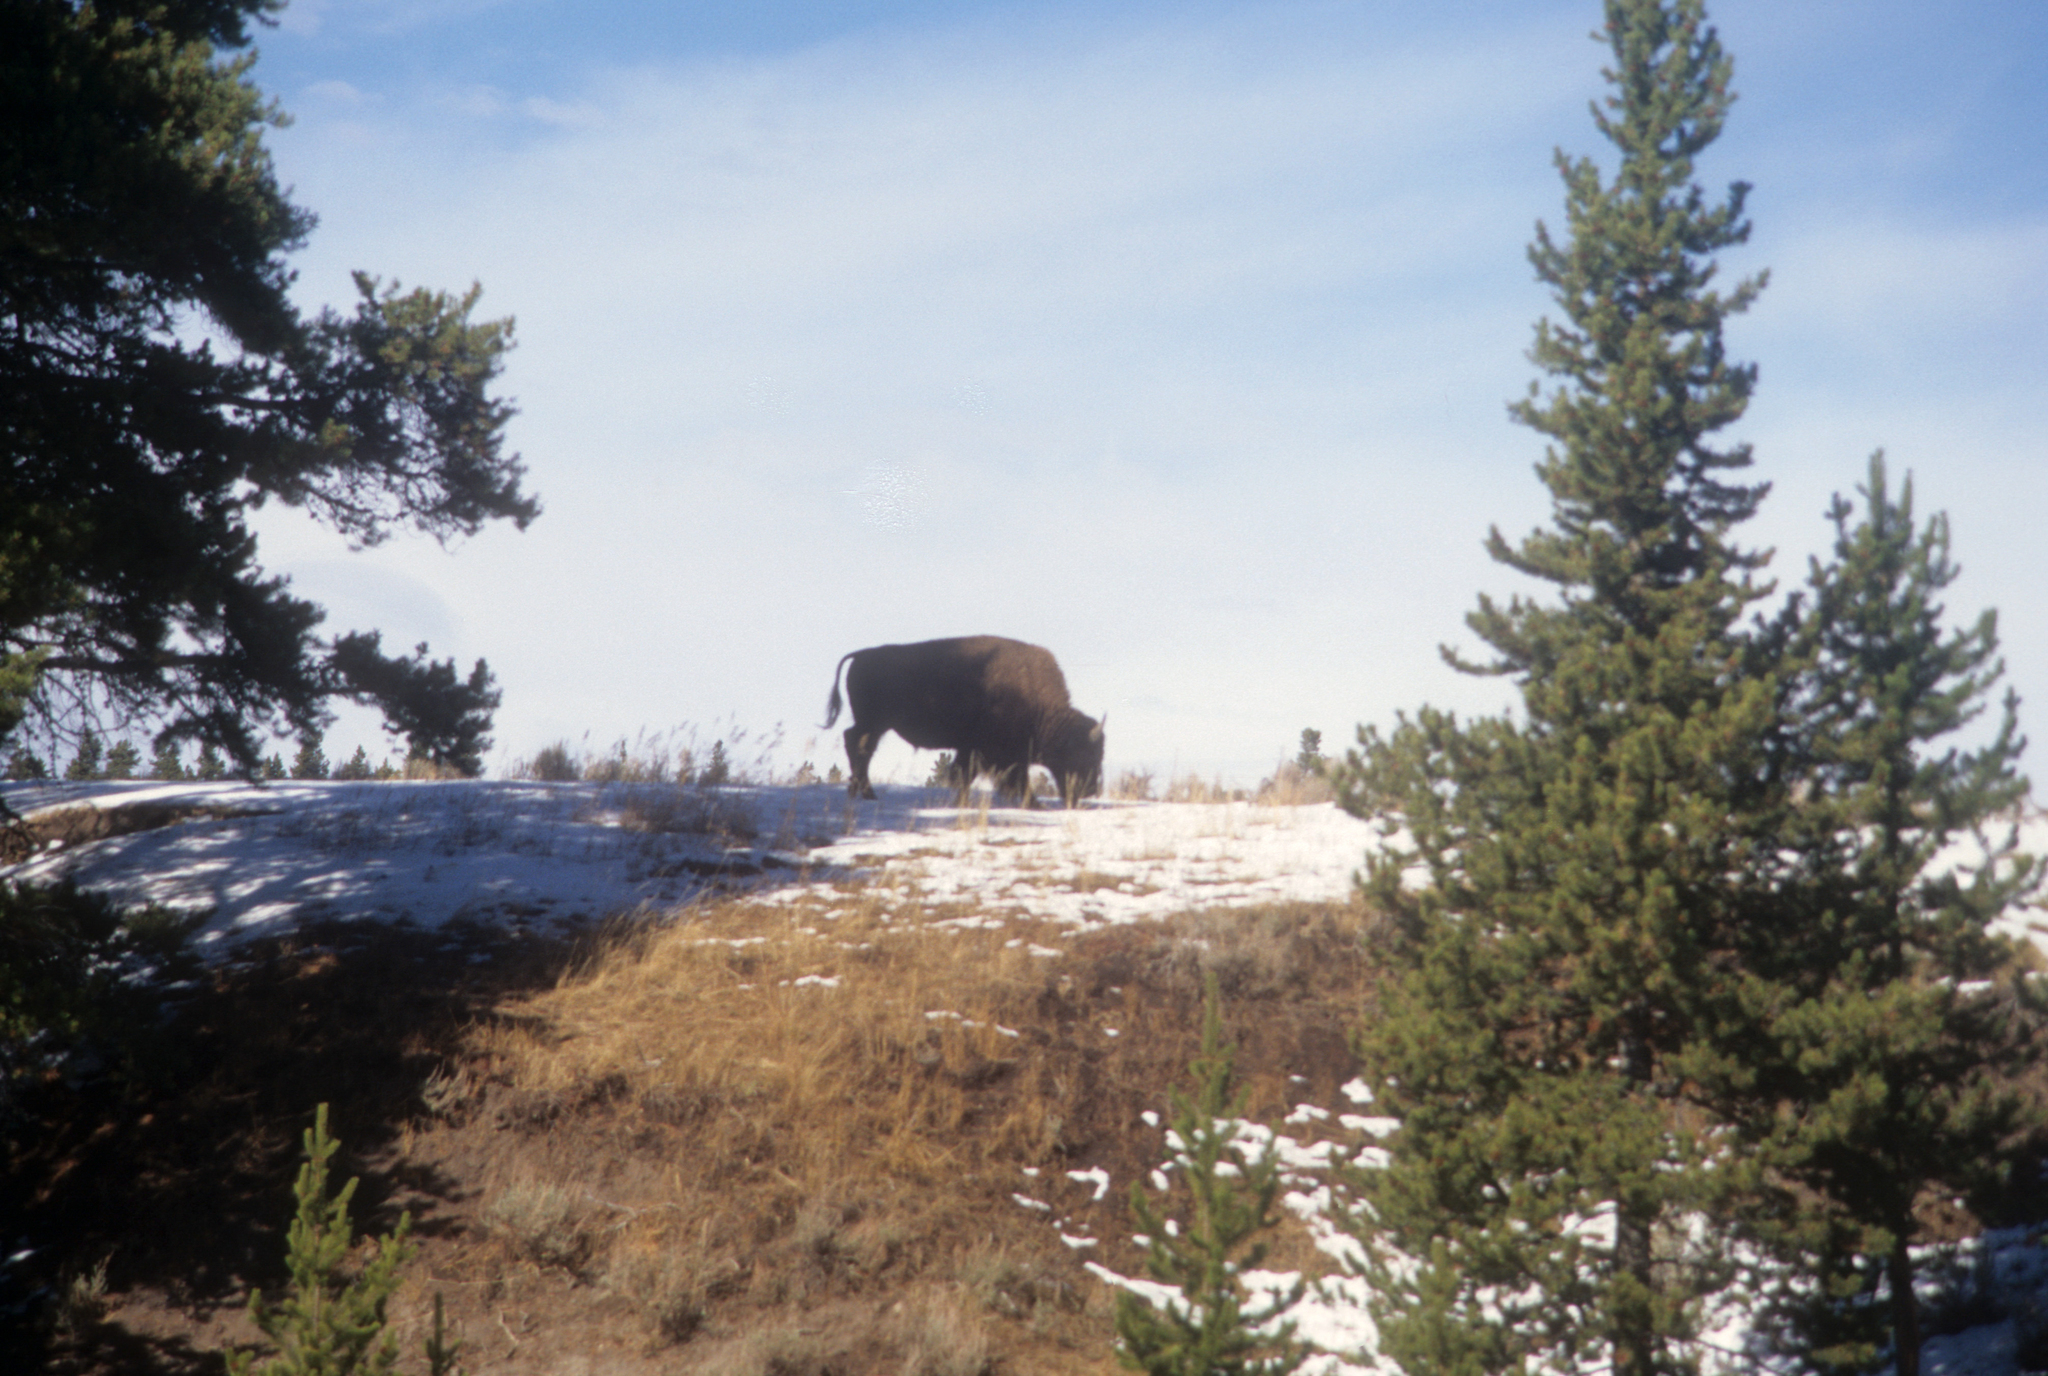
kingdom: Animalia
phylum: Chordata
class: Mammalia
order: Artiodactyla
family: Bovidae
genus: Bison
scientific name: Bison bison
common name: American bison
